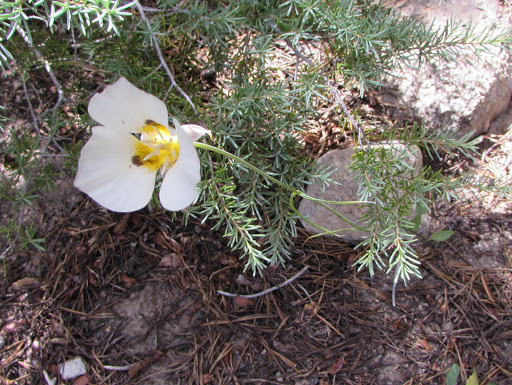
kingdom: Plantae
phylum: Tracheophyta
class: Liliopsida
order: Liliales
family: Liliaceae
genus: Calochortus
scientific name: Calochortus leichtlinii
